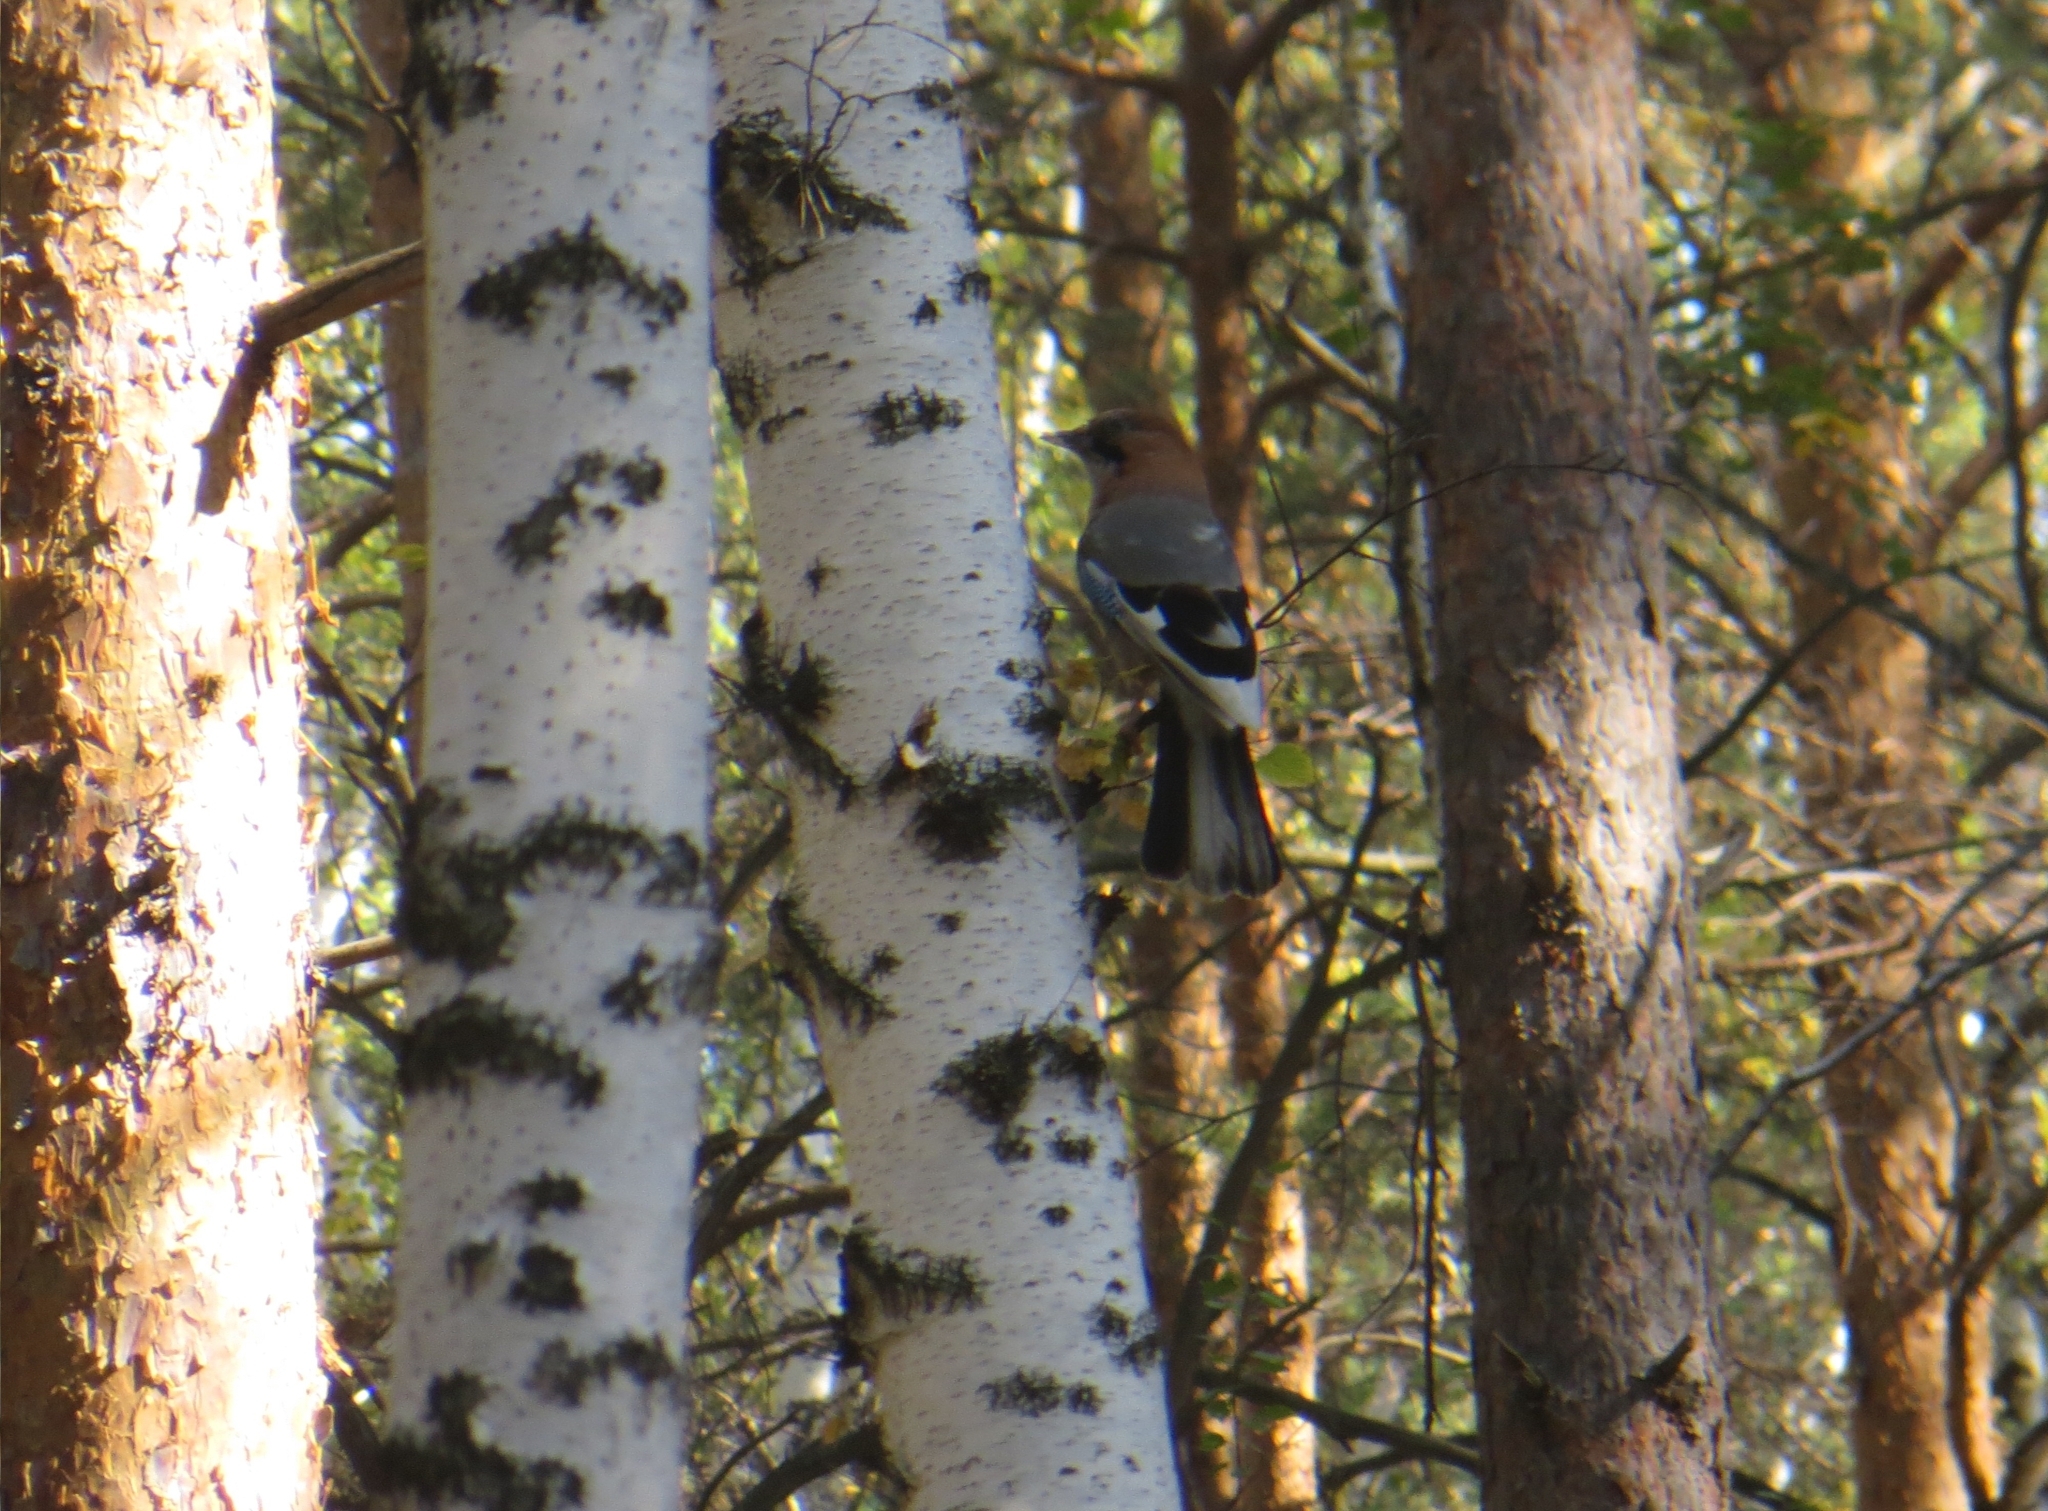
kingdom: Animalia
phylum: Chordata
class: Aves
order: Passeriformes
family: Corvidae
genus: Garrulus
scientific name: Garrulus glandarius
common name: Eurasian jay
